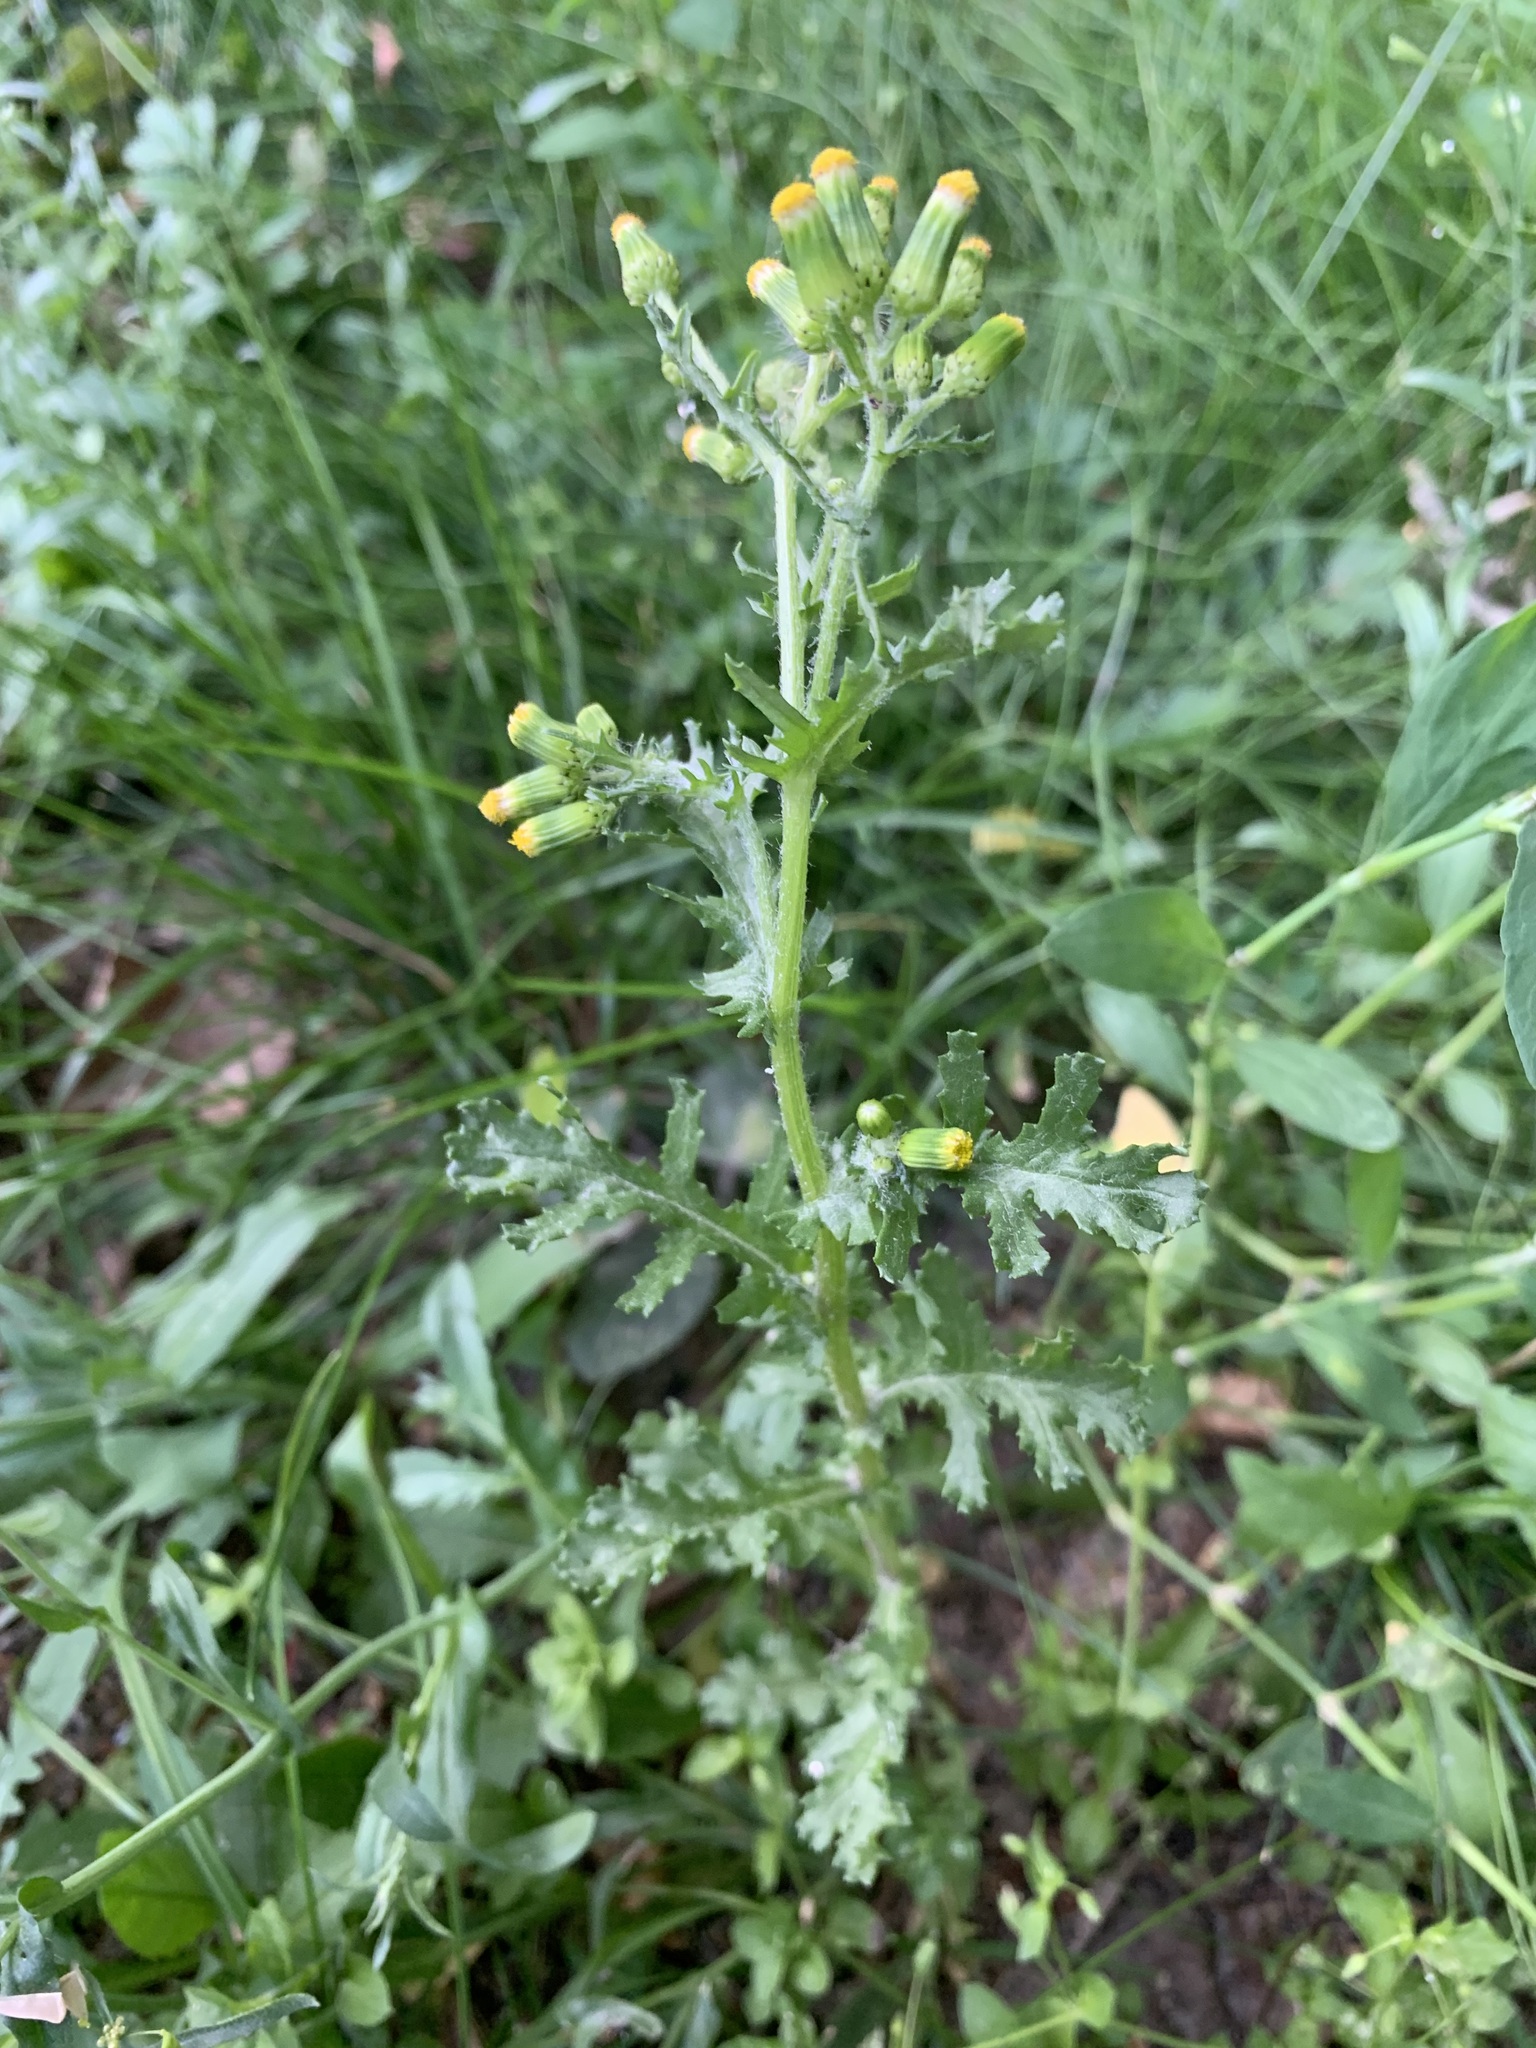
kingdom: Plantae
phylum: Tracheophyta
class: Magnoliopsida
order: Asterales
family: Asteraceae
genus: Senecio
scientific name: Senecio vulgaris
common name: Old-man-in-the-spring
